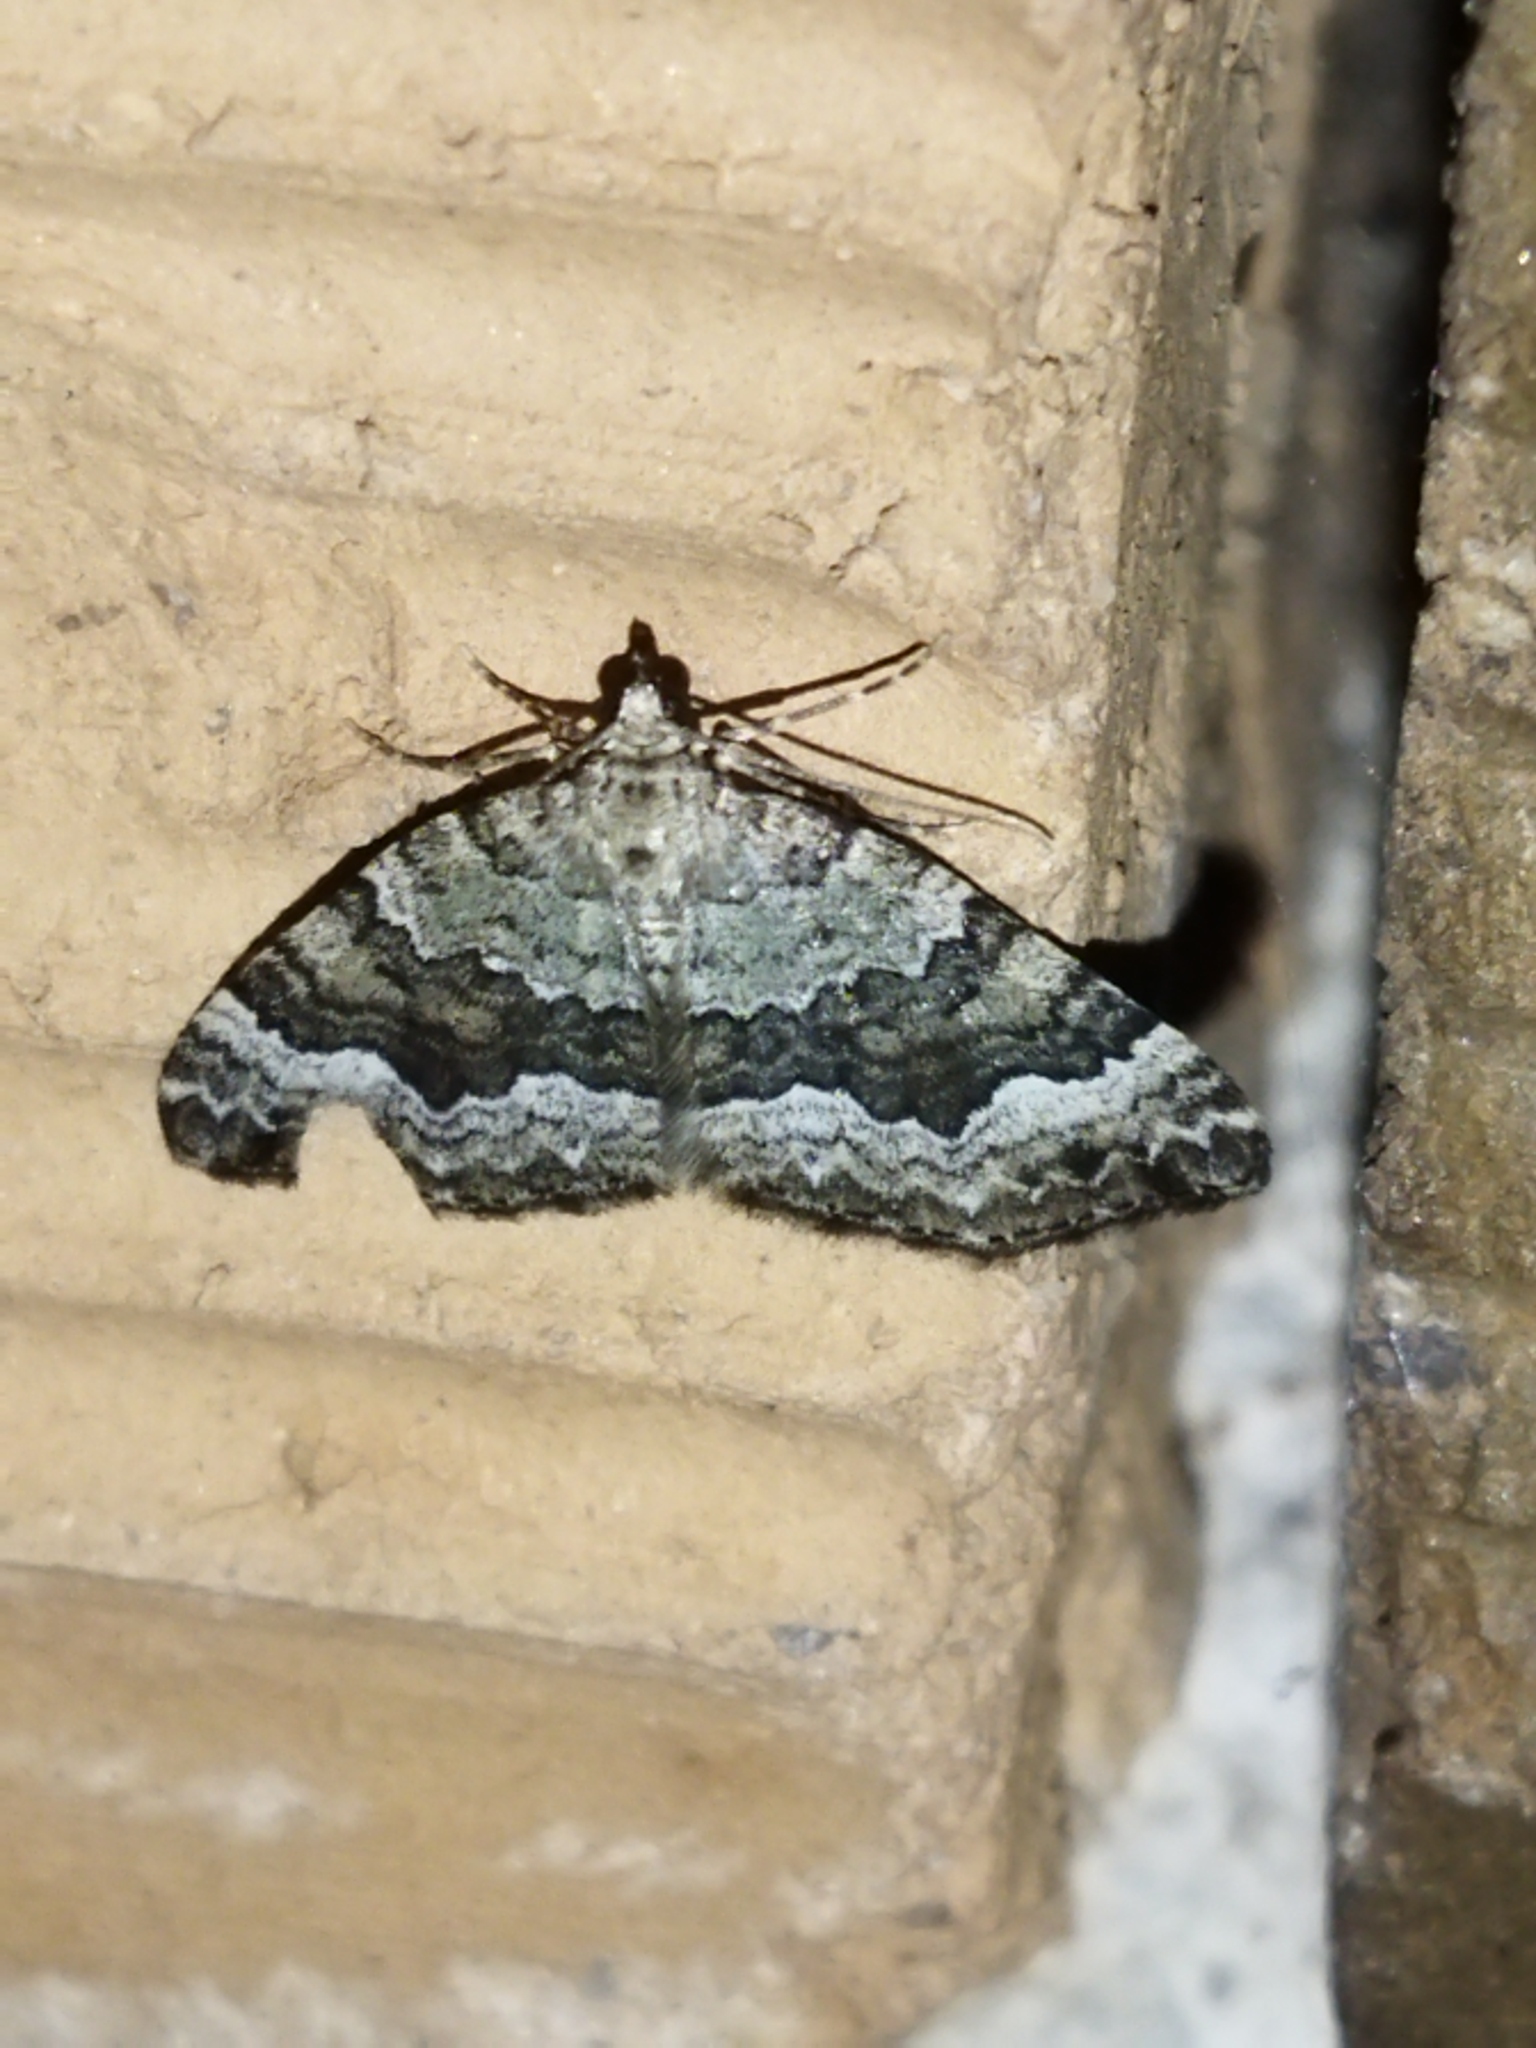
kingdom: Animalia
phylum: Arthropoda
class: Insecta
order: Lepidoptera
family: Geometridae
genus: Colostygia
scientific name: Colostygia aptata
